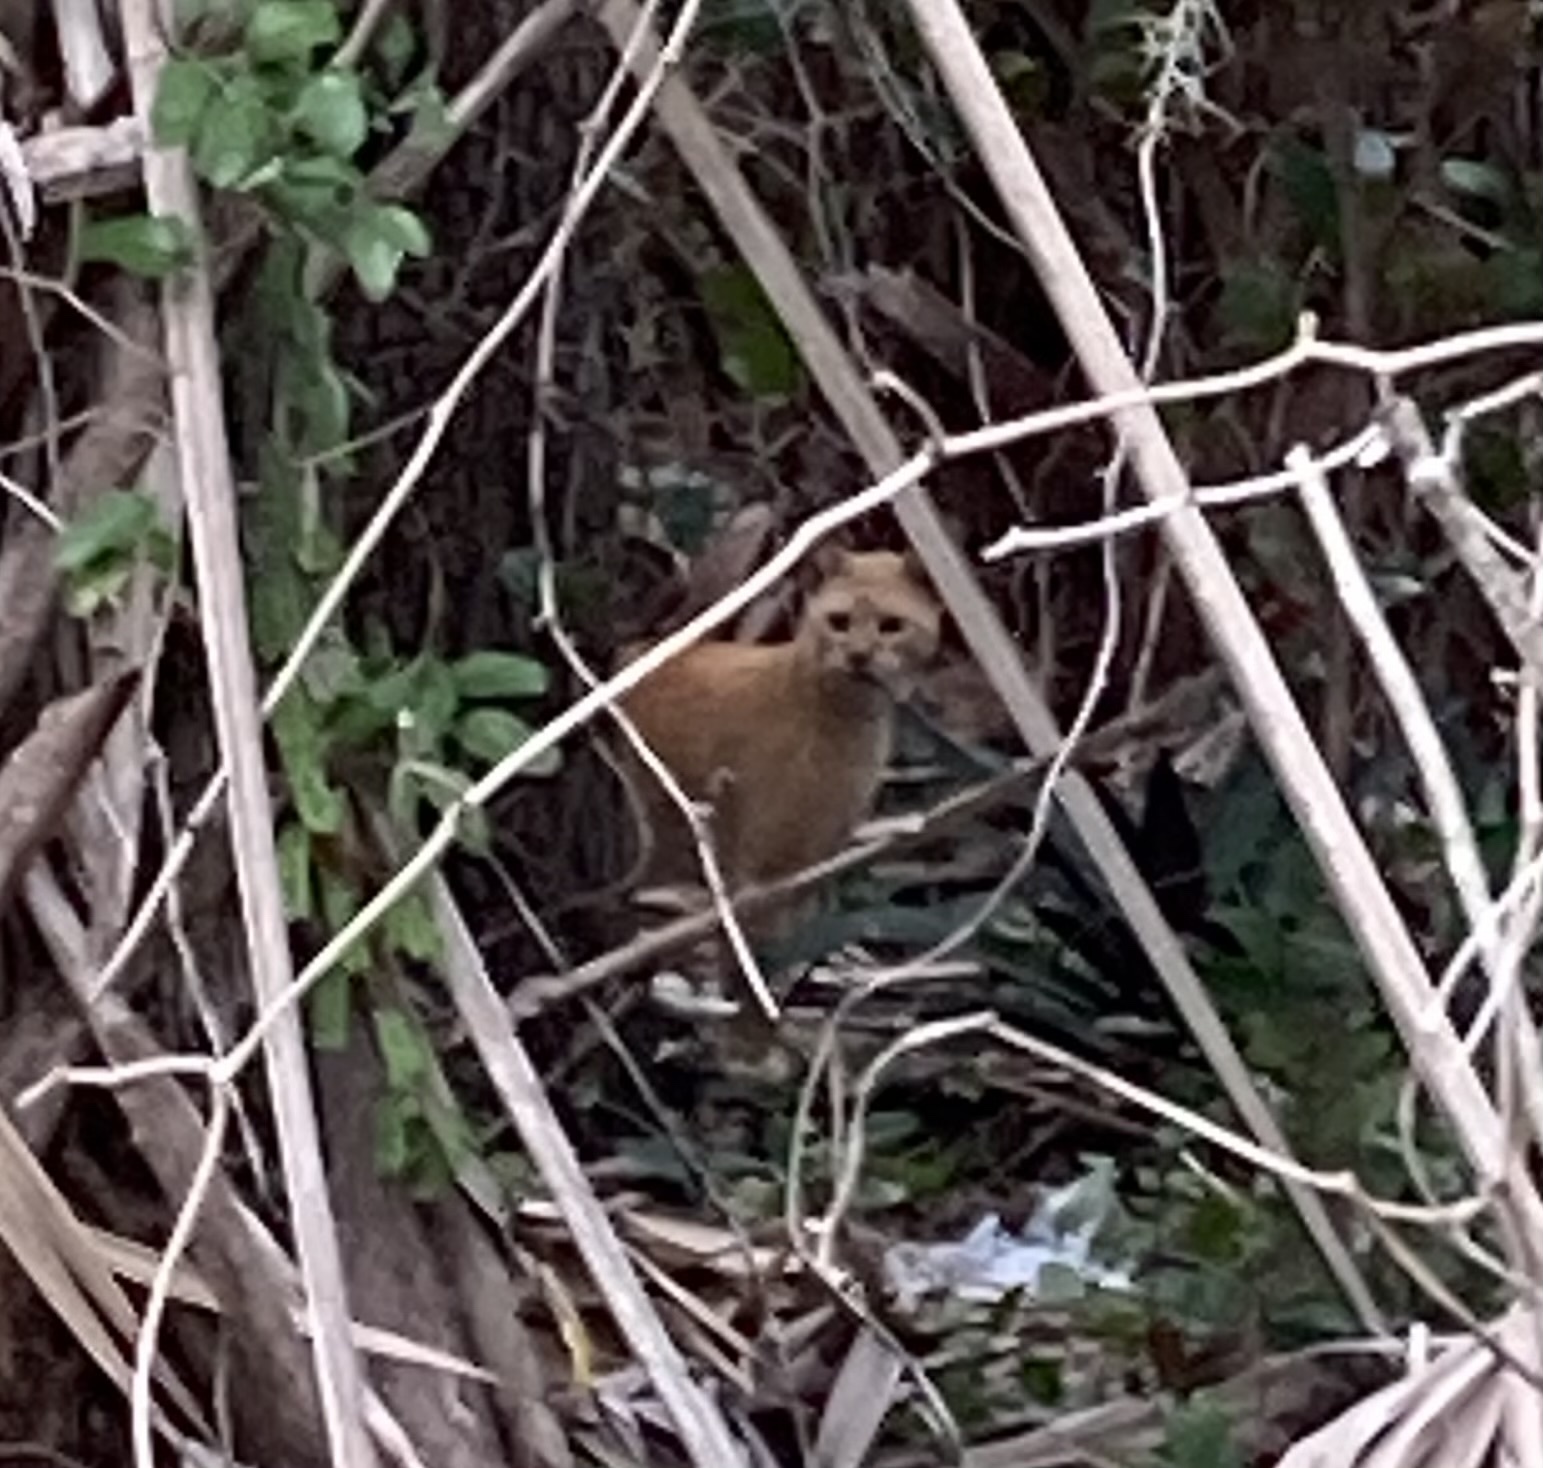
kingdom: Animalia
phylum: Chordata
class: Mammalia
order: Carnivora
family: Felidae
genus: Felis
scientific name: Felis catus
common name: Domestic cat
